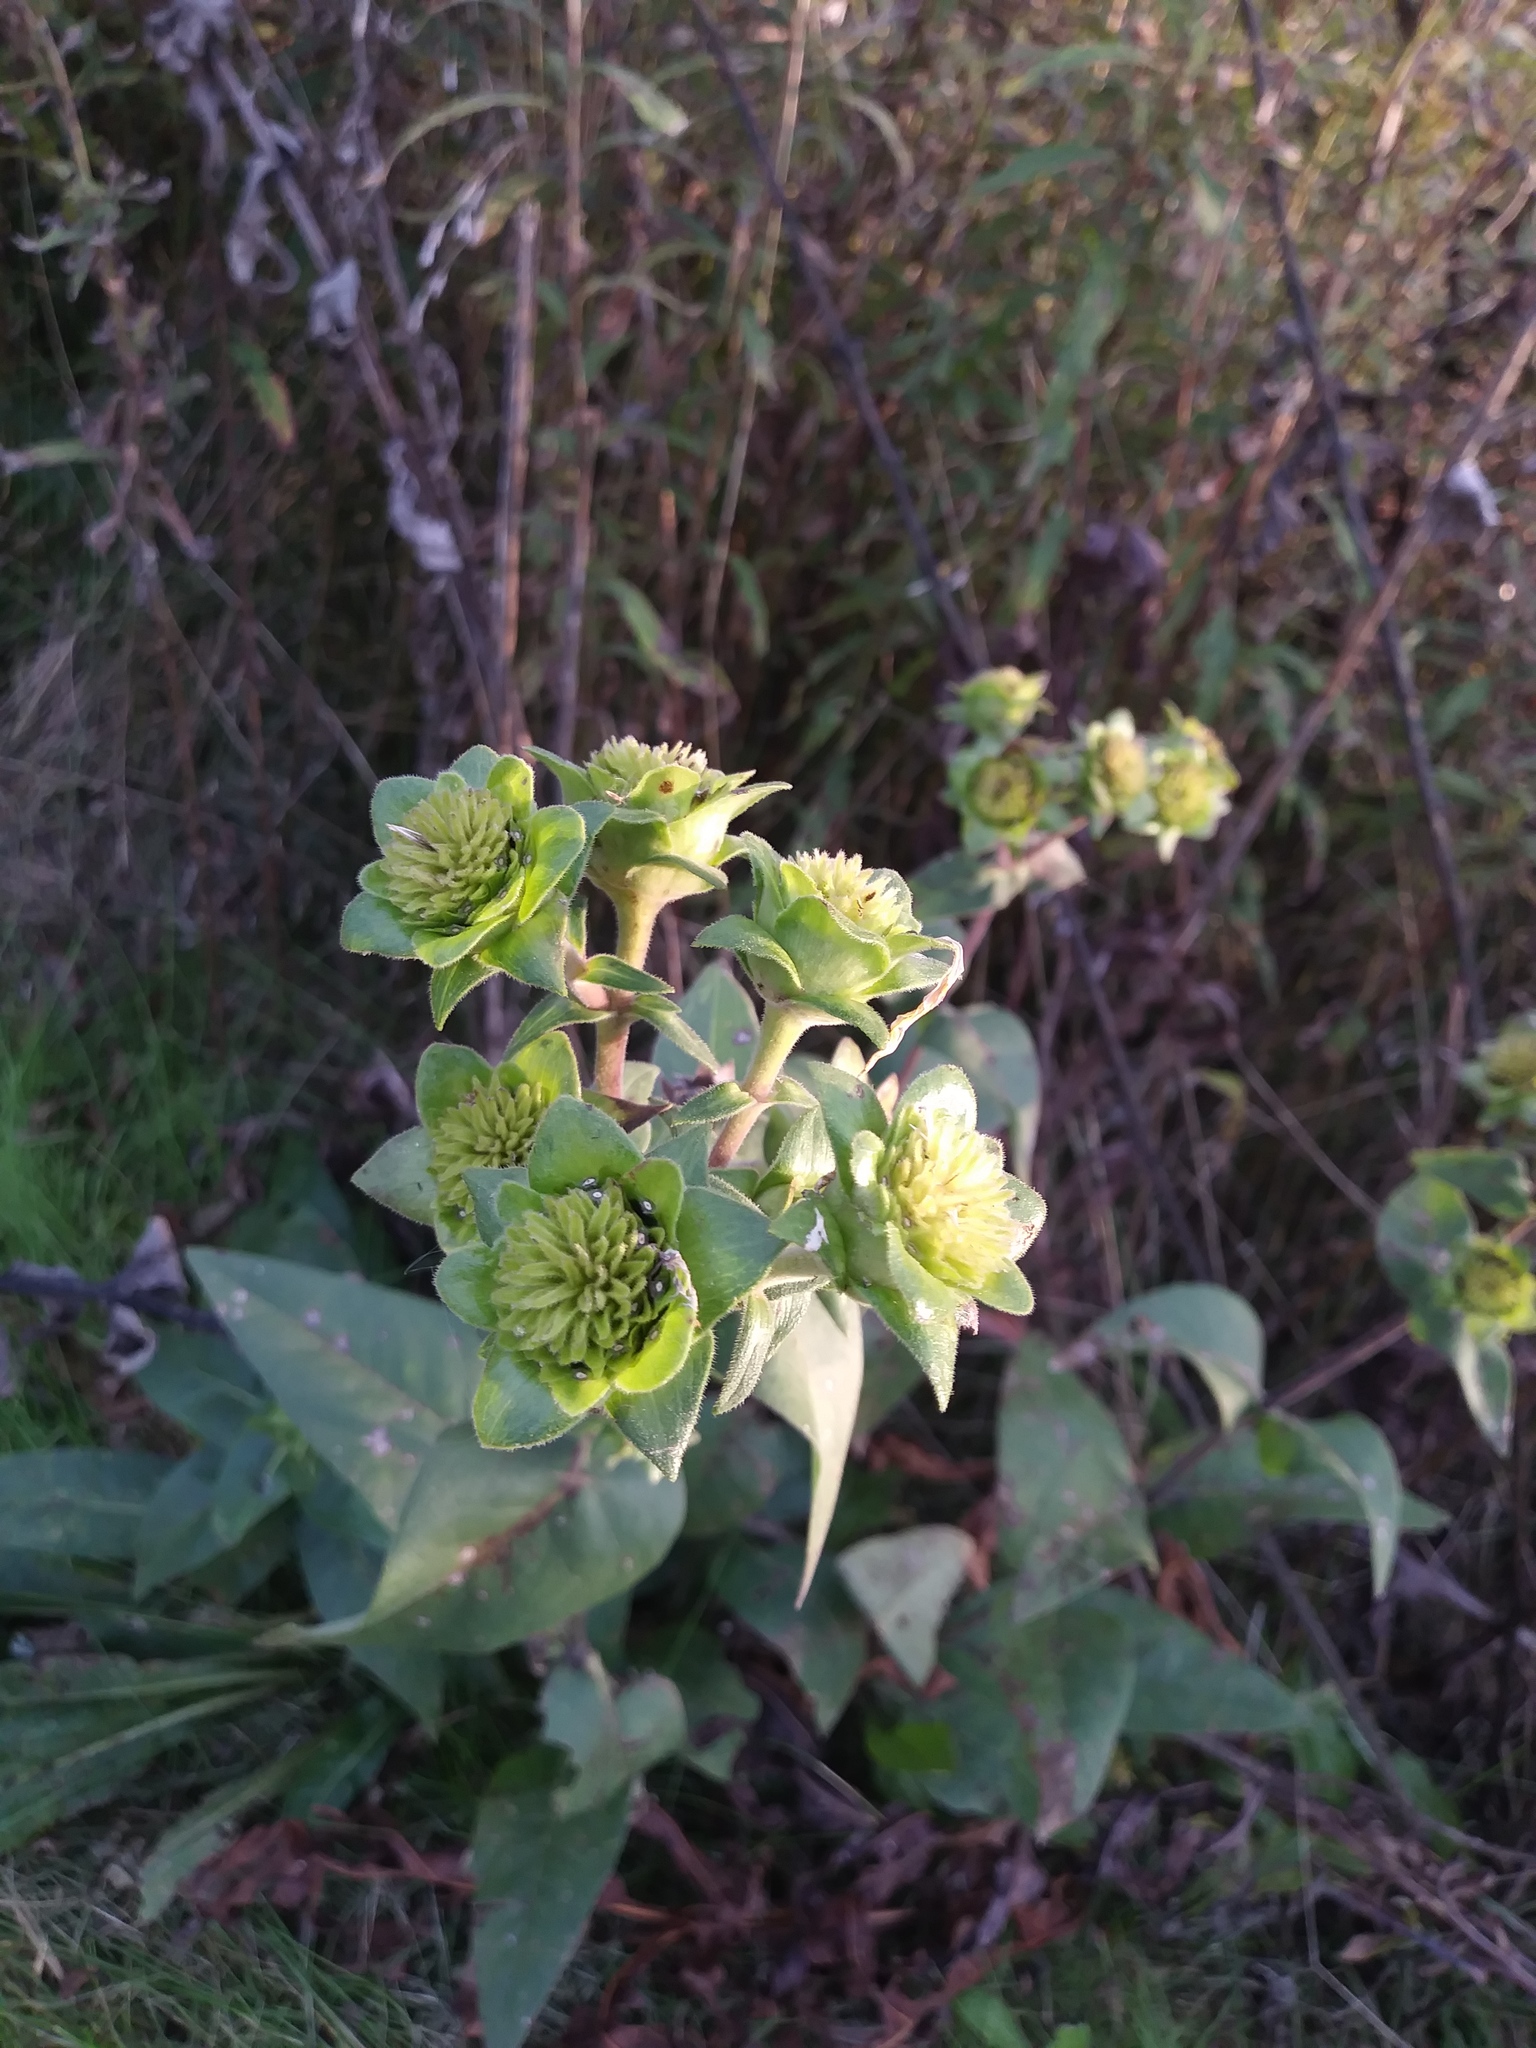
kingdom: Plantae
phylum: Tracheophyta
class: Magnoliopsida
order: Asterales
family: Asteraceae
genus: Silphium
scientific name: Silphium integrifolium
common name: Whole-leaf rosinweed
